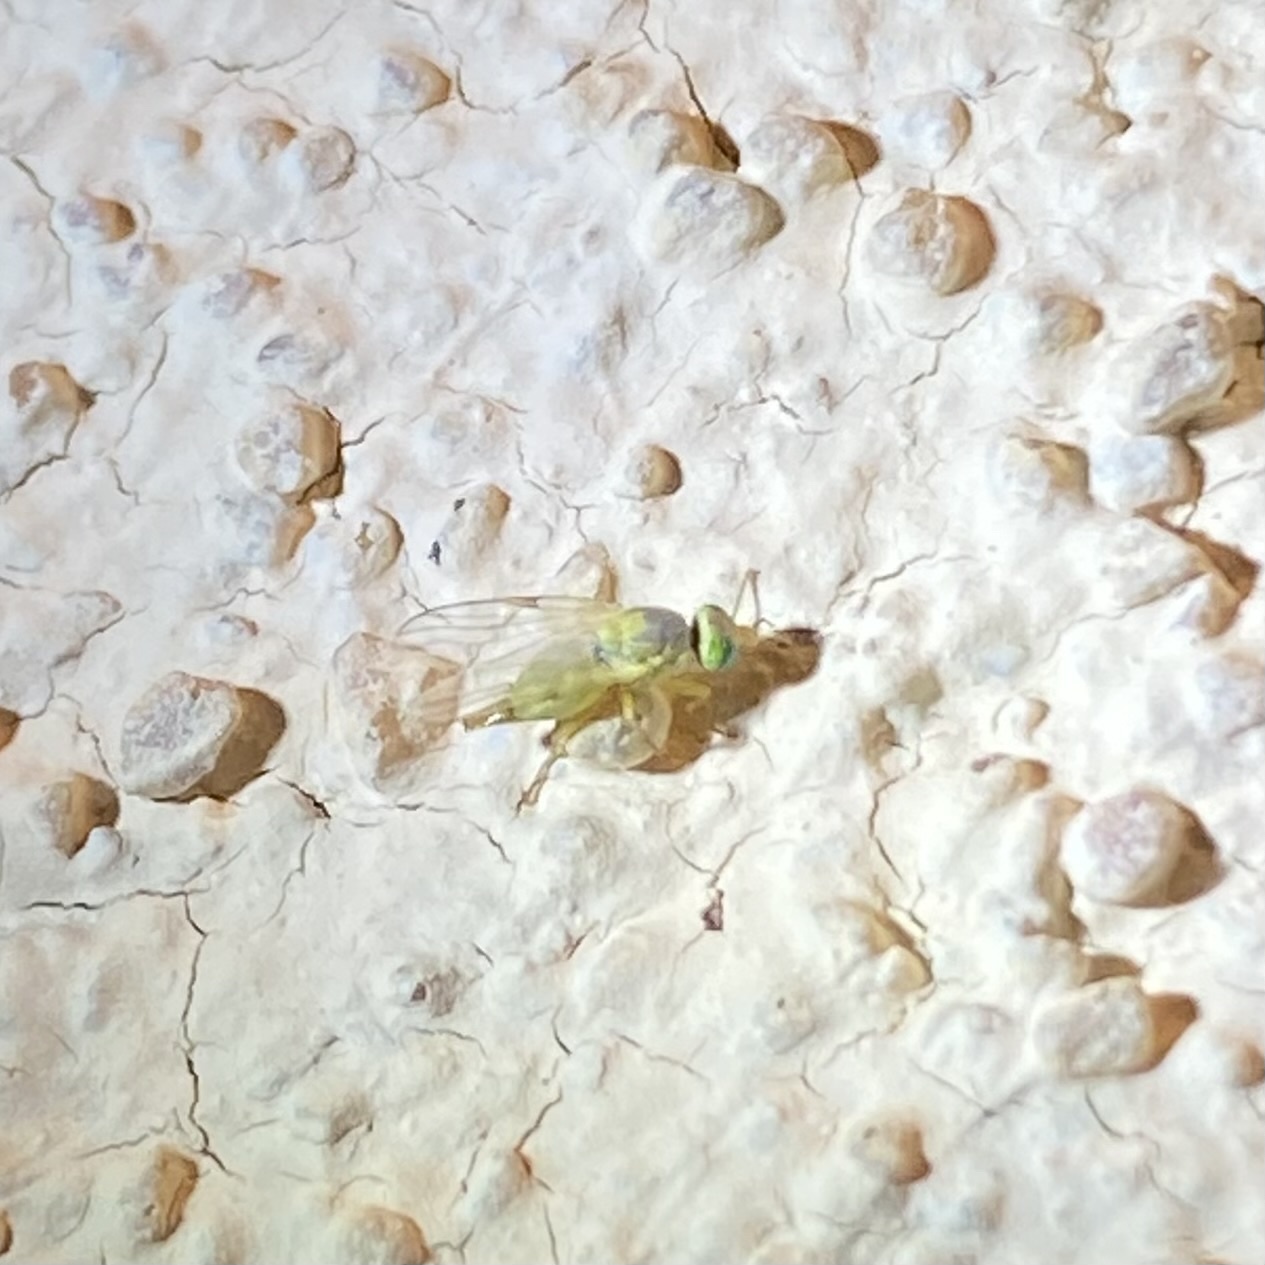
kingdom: Animalia
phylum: Arthropoda
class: Insecta
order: Diptera
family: Tephritidae
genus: Neaspilota
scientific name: Neaspilota
